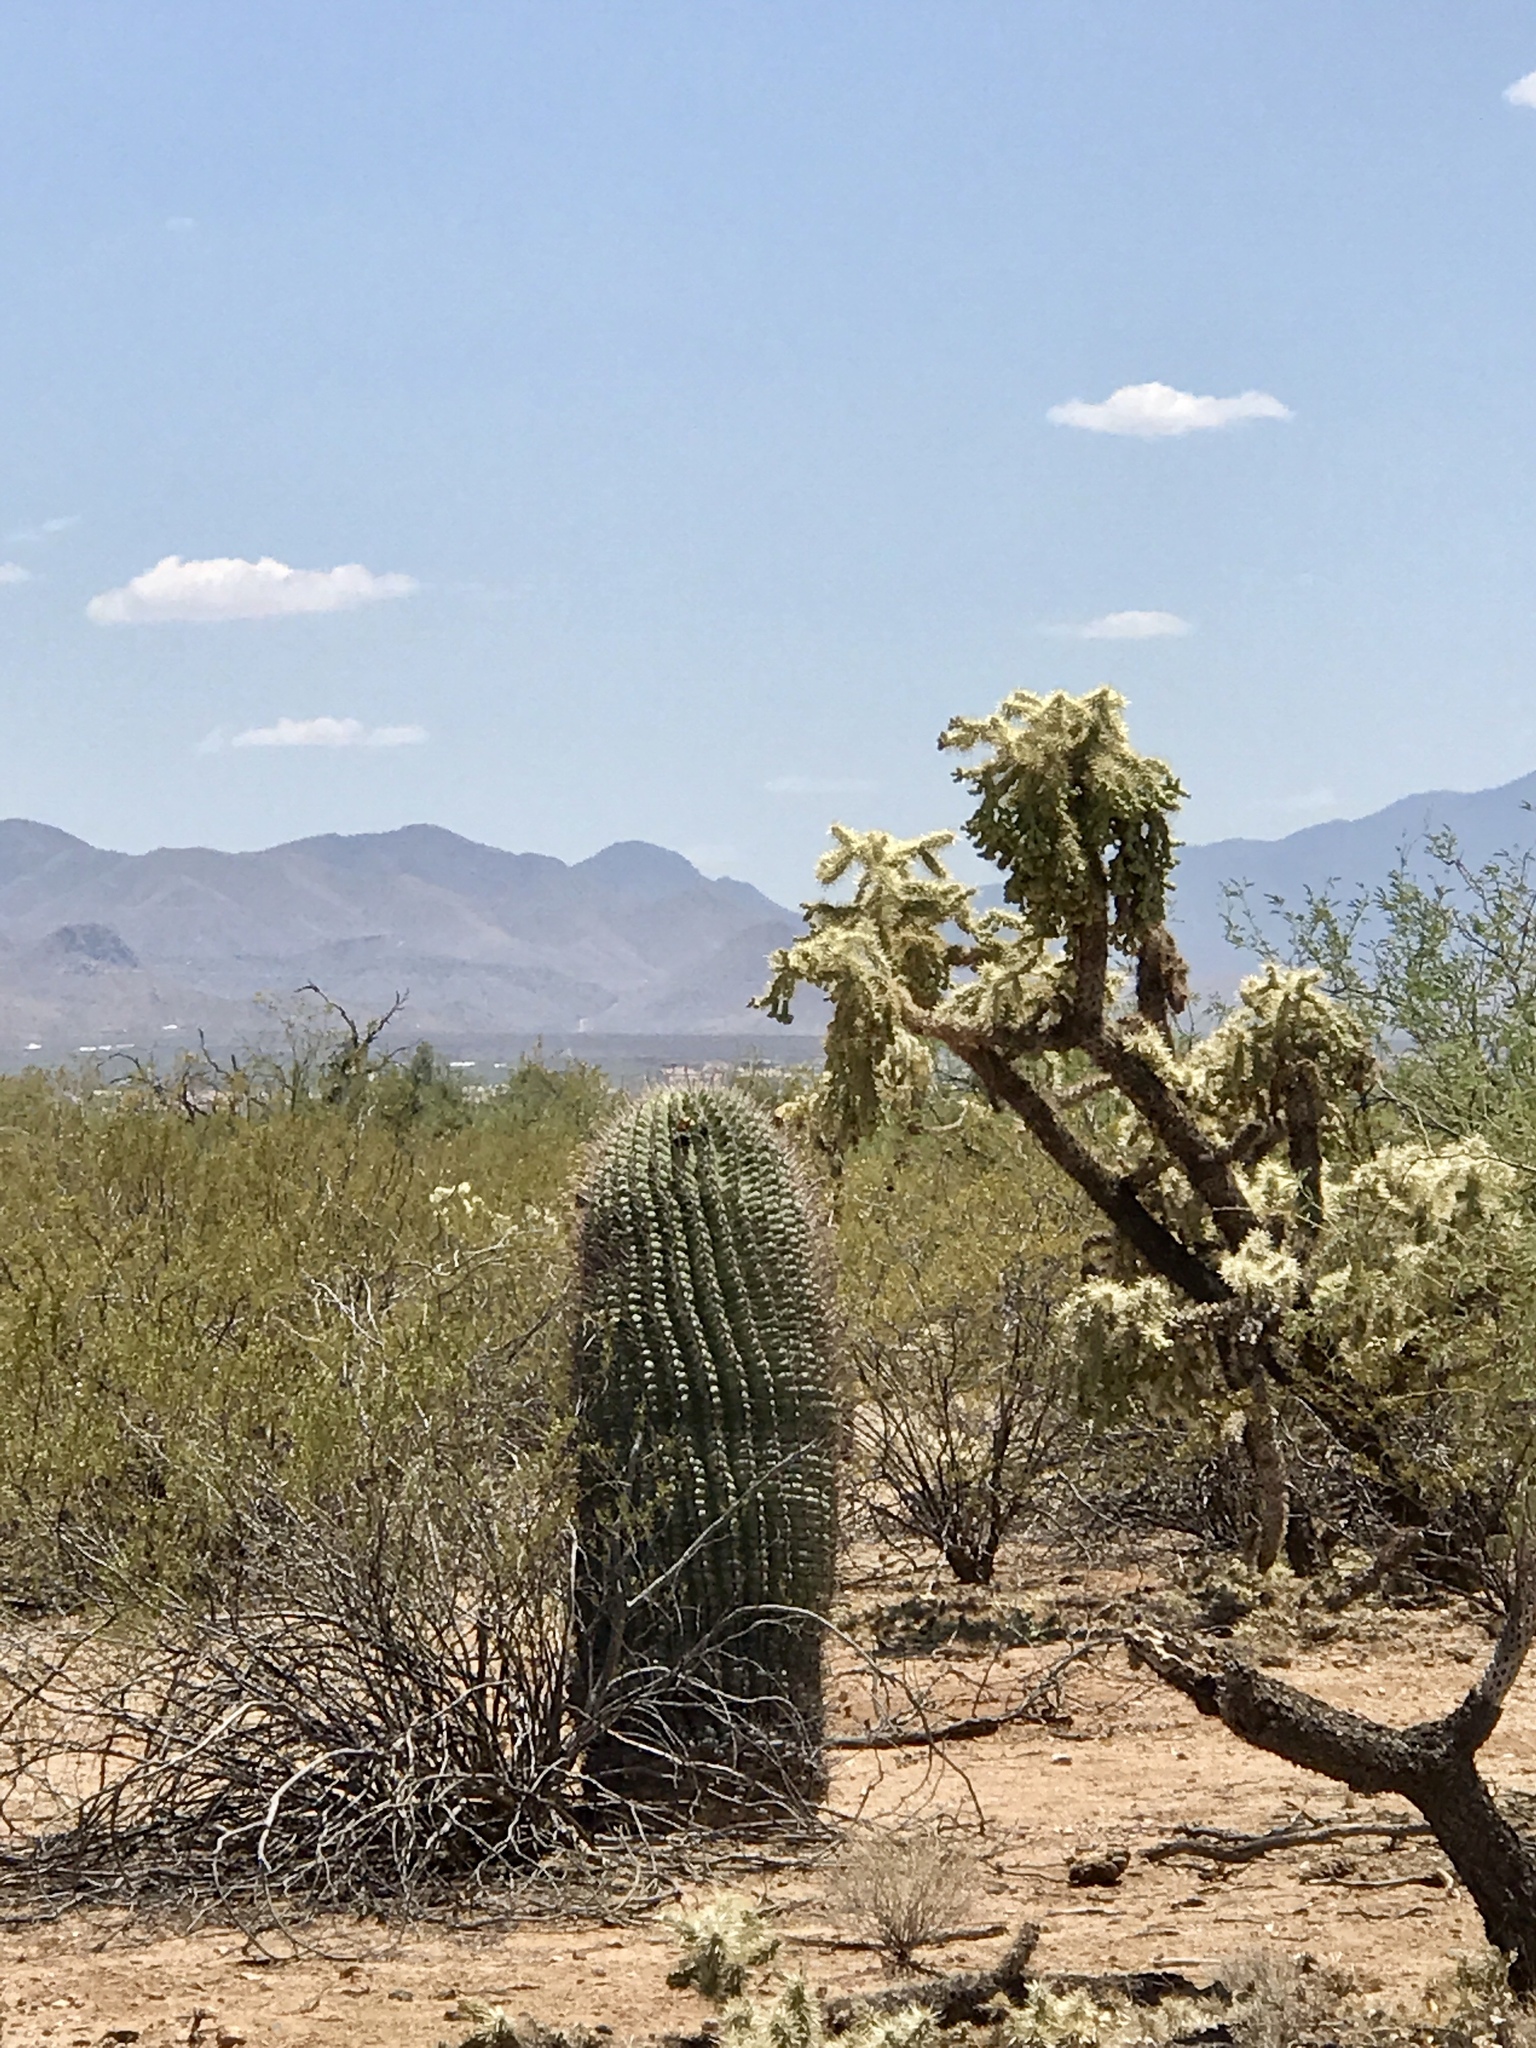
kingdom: Plantae
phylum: Tracheophyta
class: Magnoliopsida
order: Caryophyllales
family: Cactaceae
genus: Ferocactus
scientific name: Ferocactus wislizeni
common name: Candy barrel cactus
